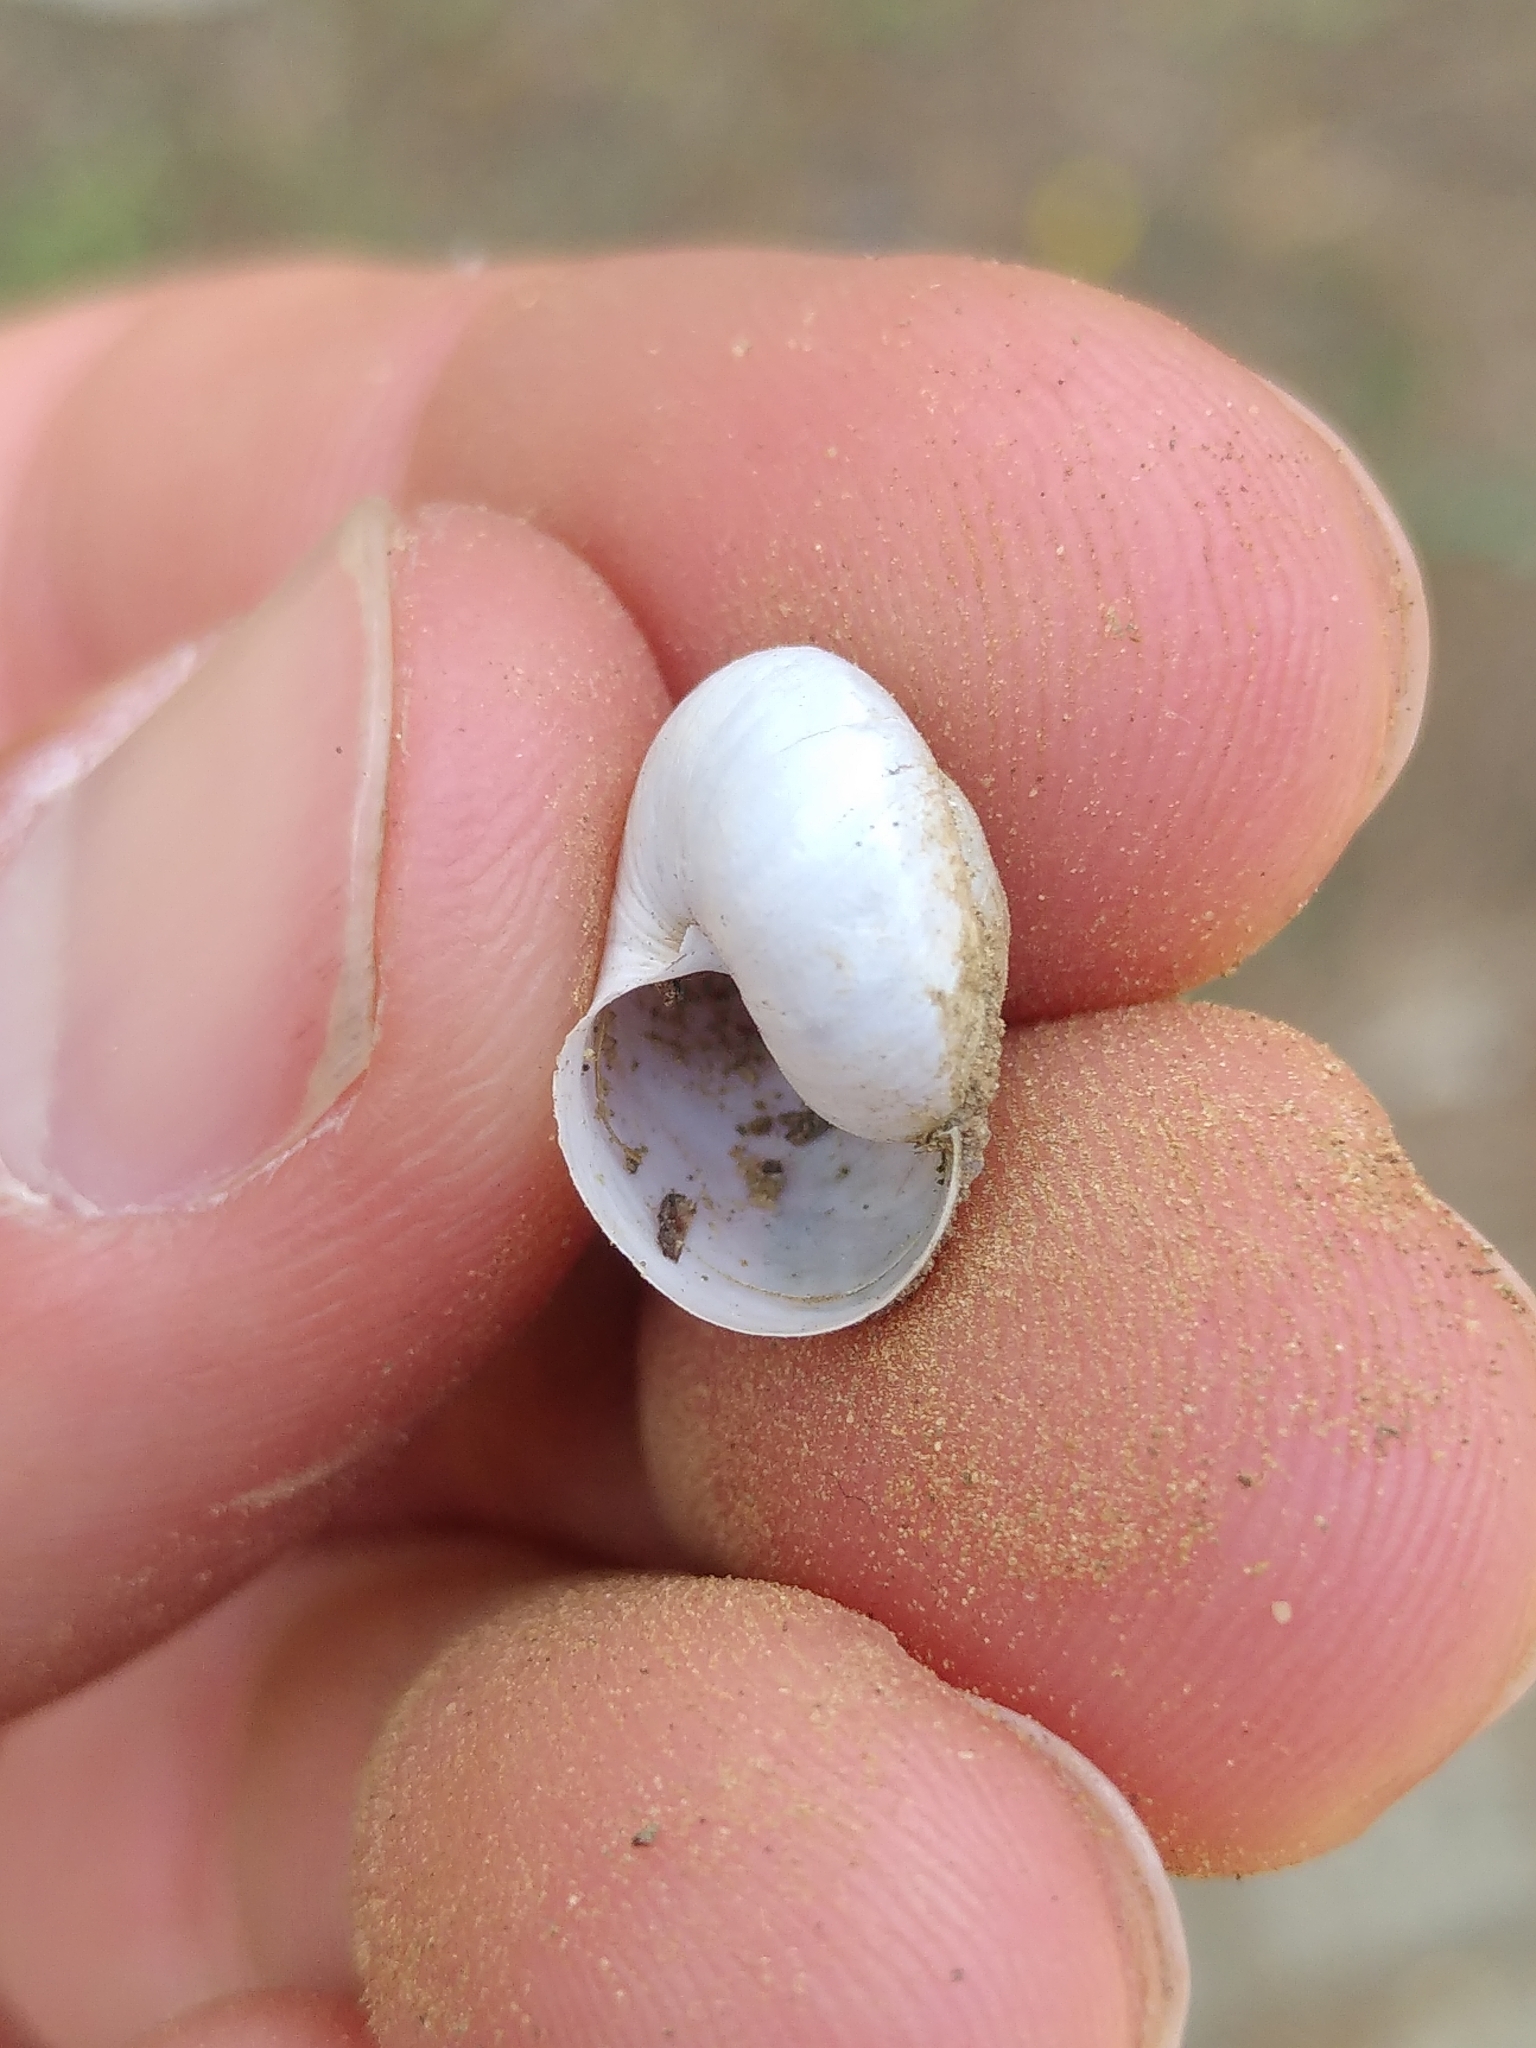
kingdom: Animalia
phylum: Mollusca
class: Gastropoda
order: Stylommatophora
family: Helicidae
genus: Eobania
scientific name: Eobania vermiculata
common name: Chocolateband snail
